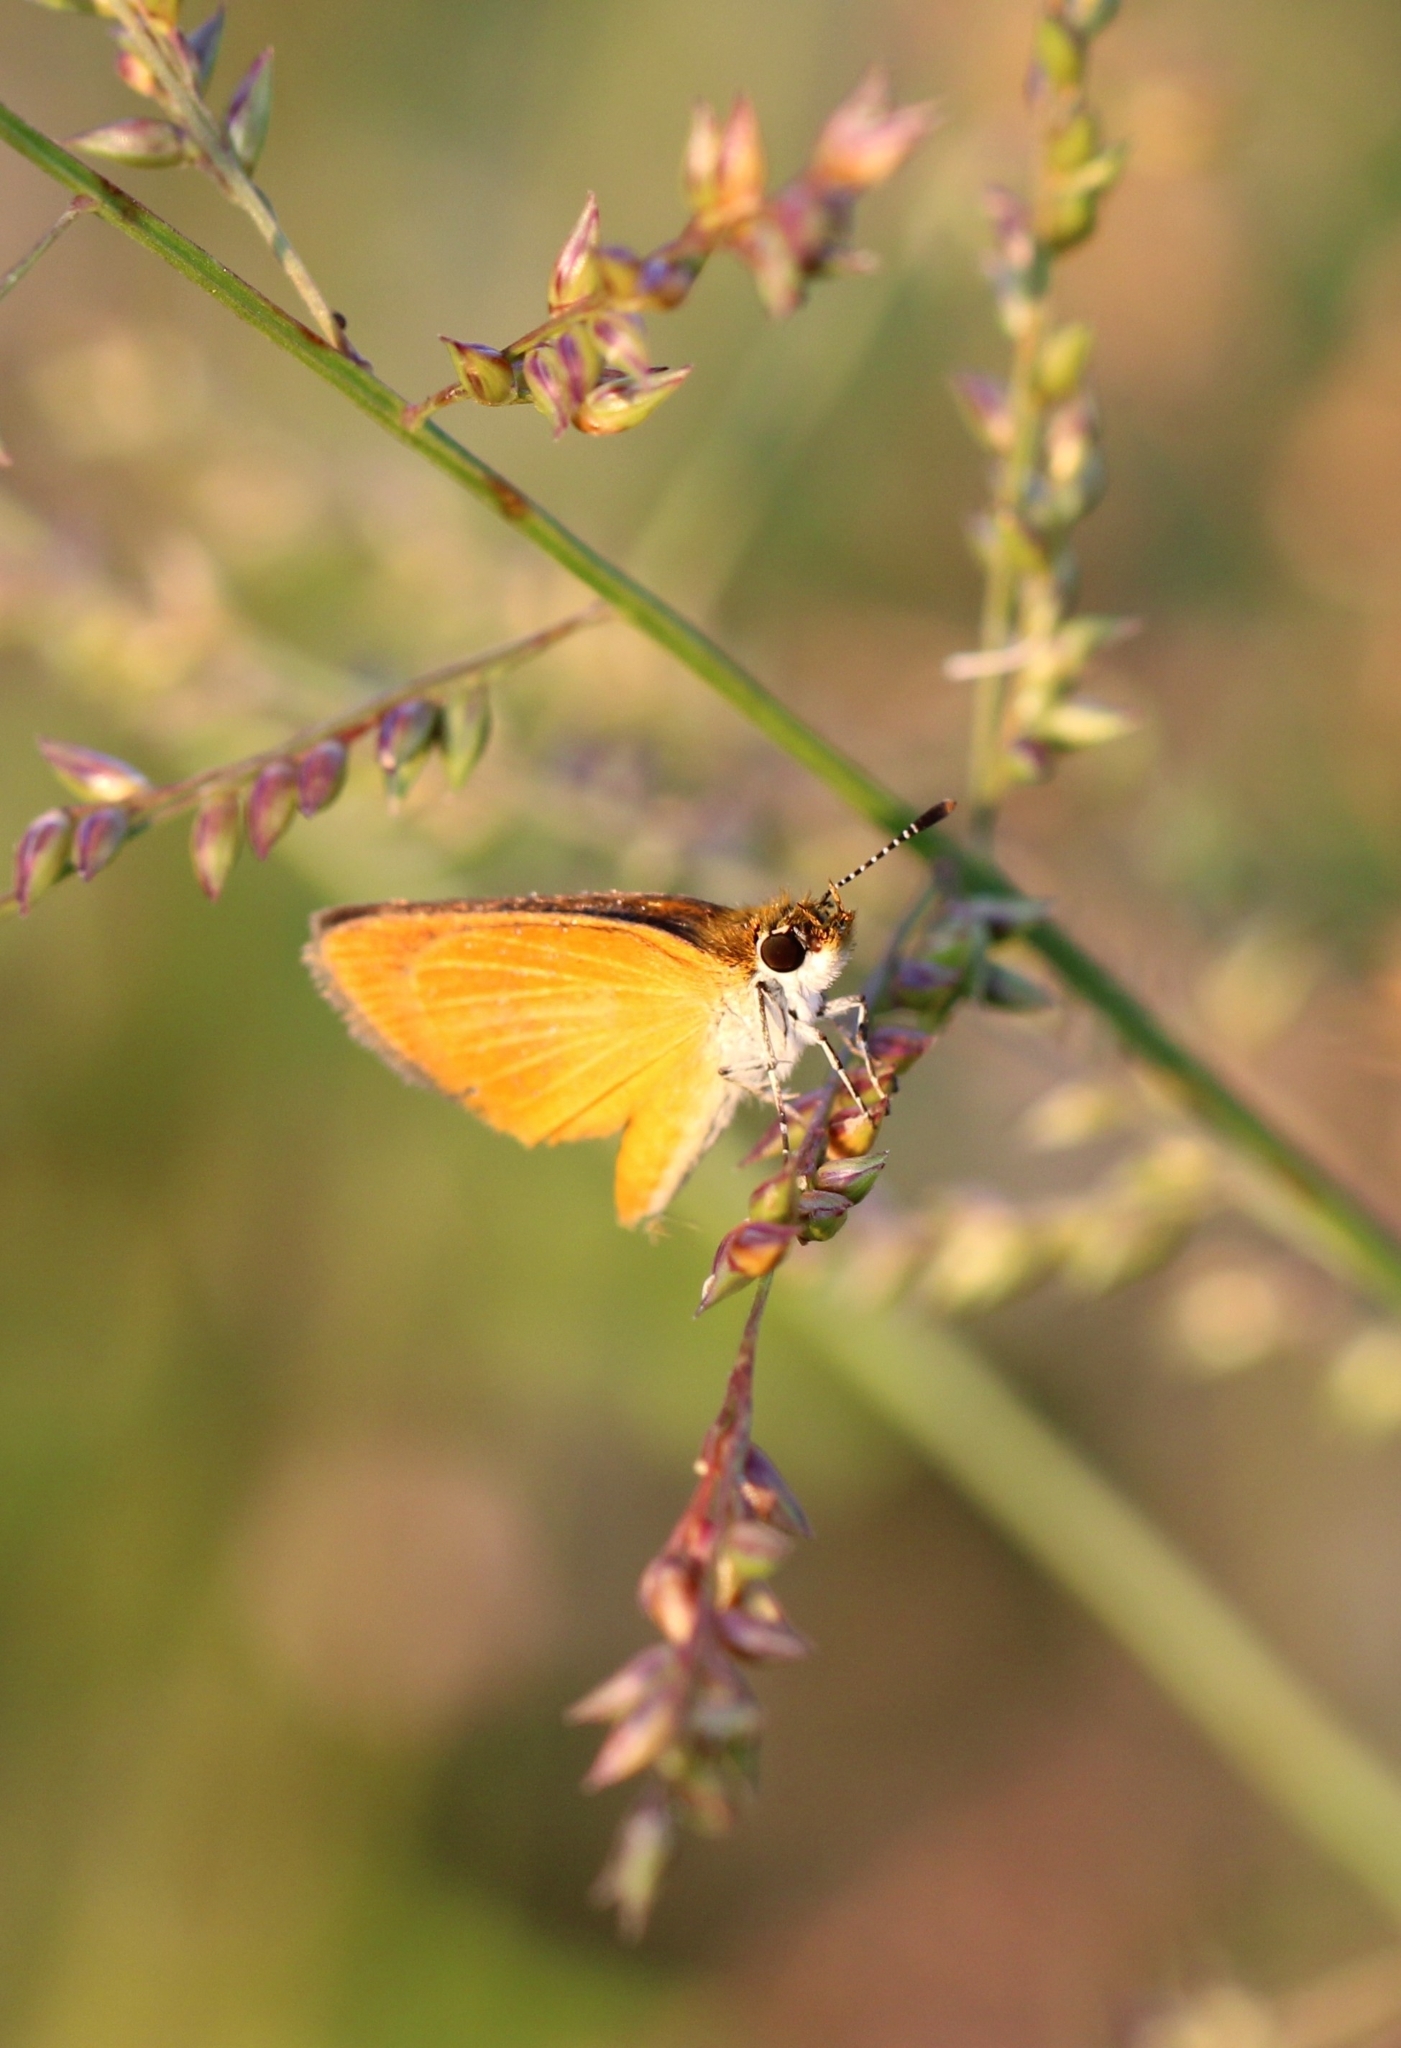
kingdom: Animalia
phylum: Arthropoda
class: Insecta
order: Lepidoptera
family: Hesperiidae
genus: Ancyloxypha
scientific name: Ancyloxypha numitor
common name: Least skipper
